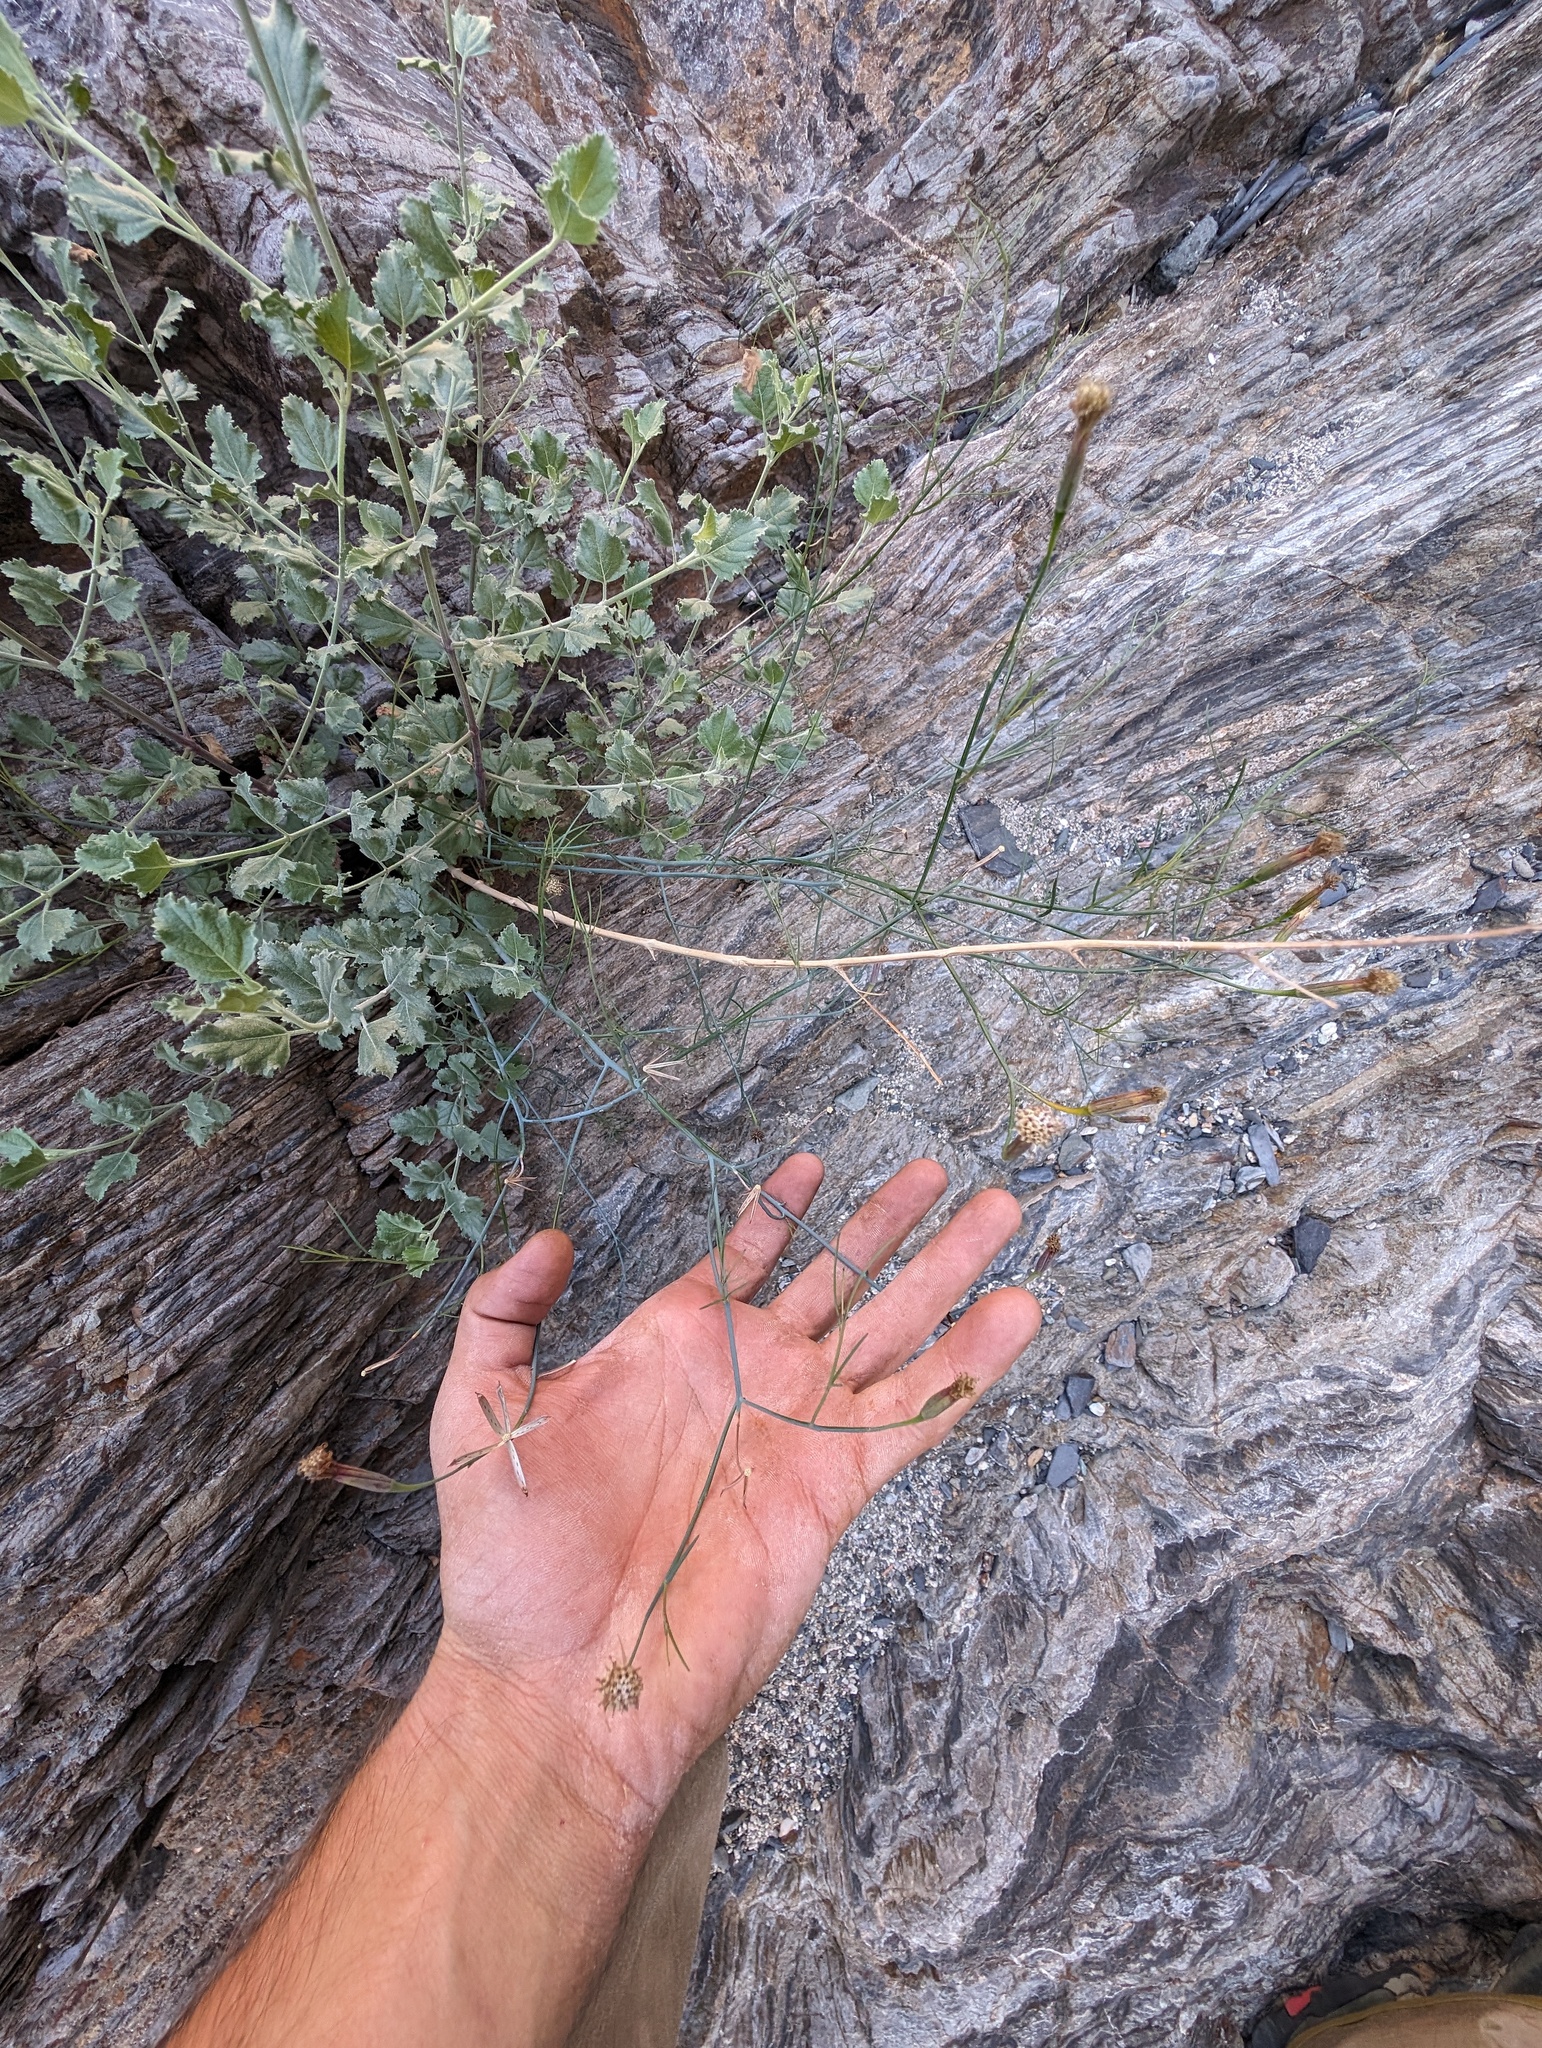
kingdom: Plantae
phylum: Tracheophyta
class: Magnoliopsida
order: Asterales
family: Asteraceae
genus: Porophyllum
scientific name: Porophyllum gracile
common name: Odora
